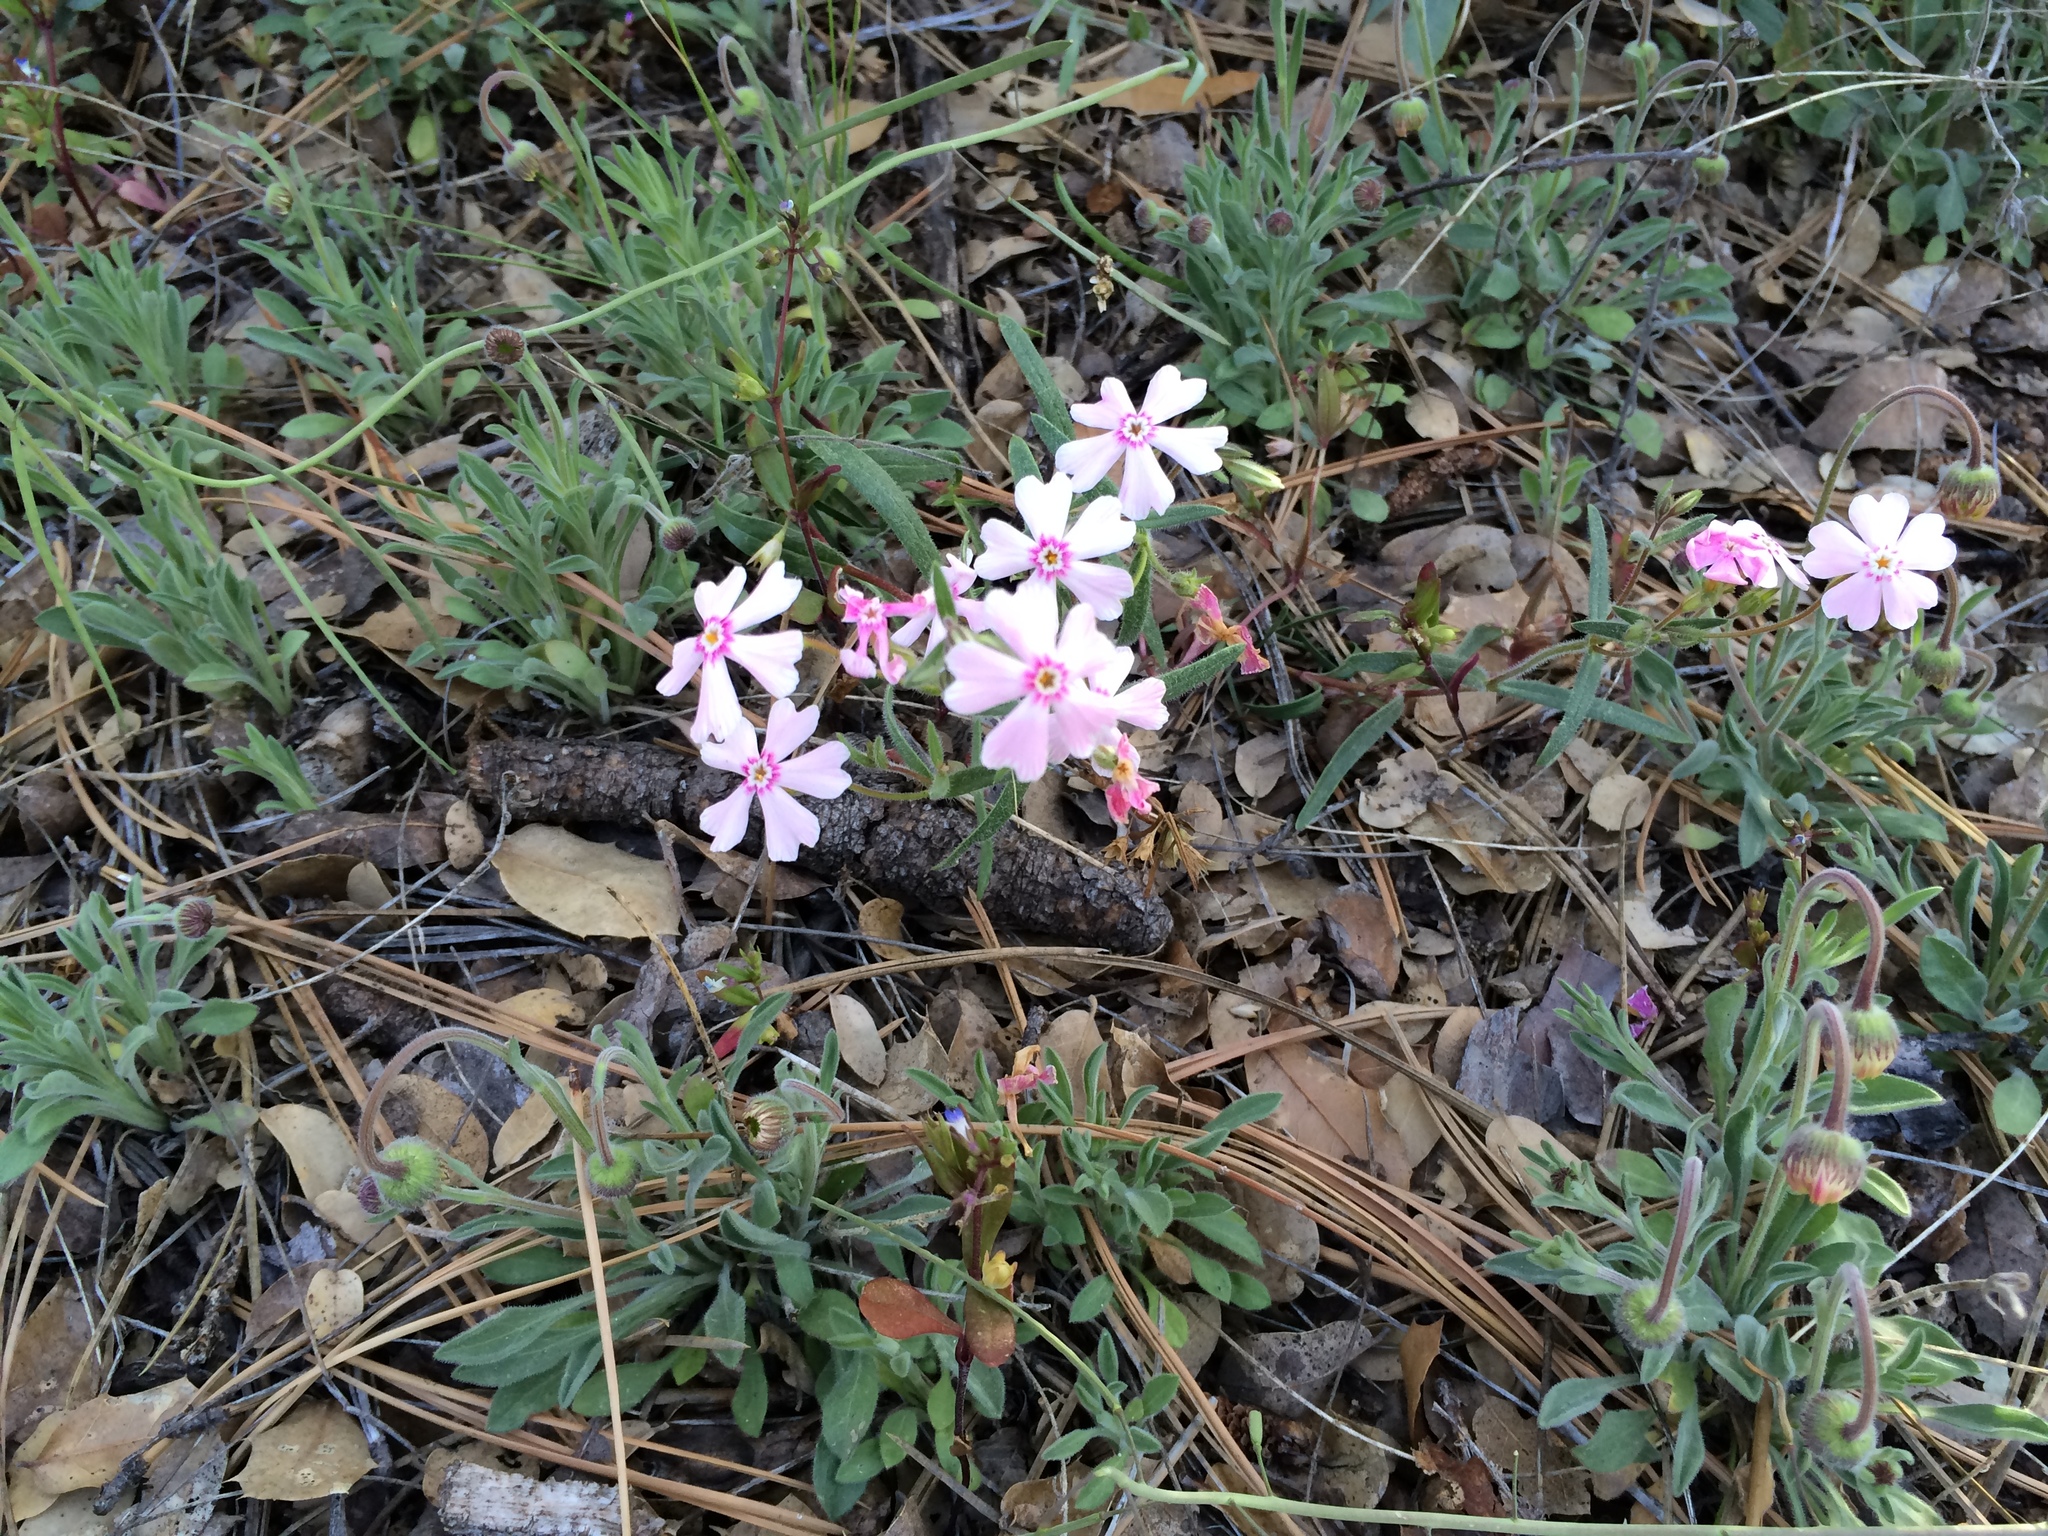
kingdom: Plantae
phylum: Tracheophyta
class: Magnoliopsida
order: Ericales
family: Polemoniaceae
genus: Phlox
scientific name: Phlox amabilis
